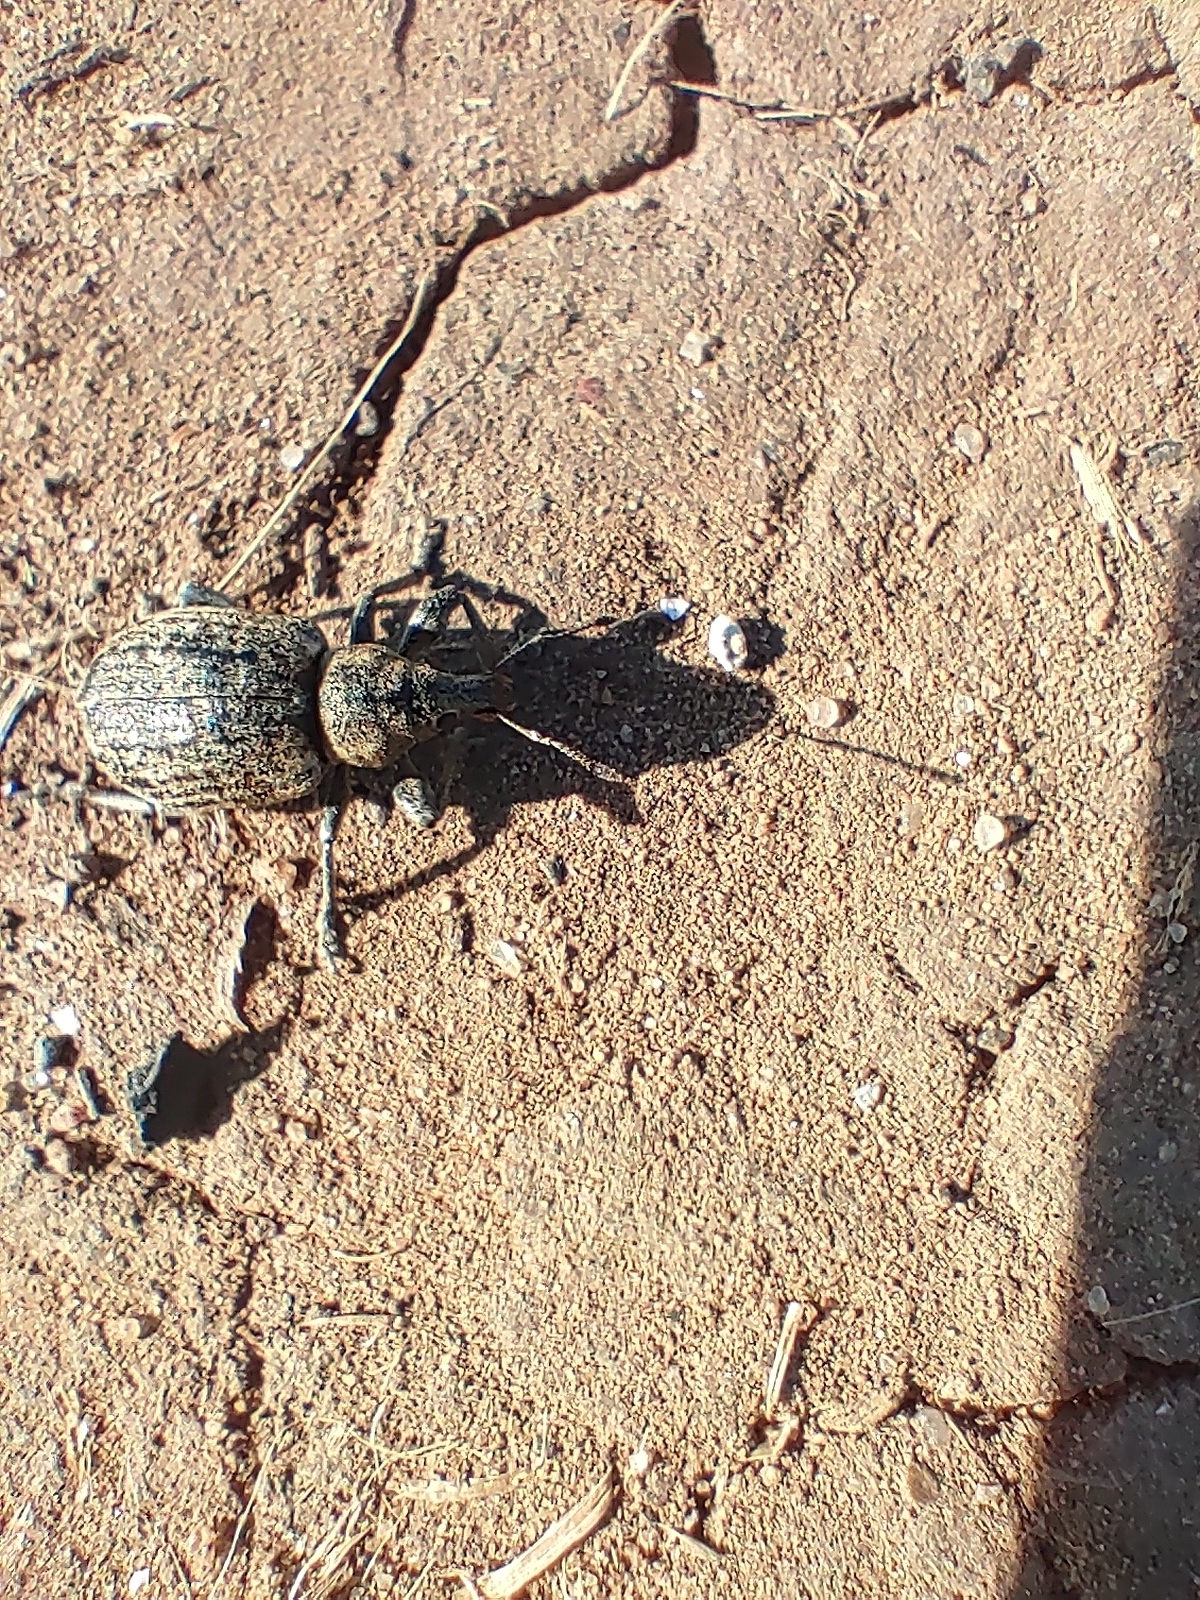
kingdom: Animalia
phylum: Arthropoda
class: Insecta
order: Coleoptera
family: Curculionidae
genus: Liophloeus
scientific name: Liophloeus tessulatus
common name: Weevil
